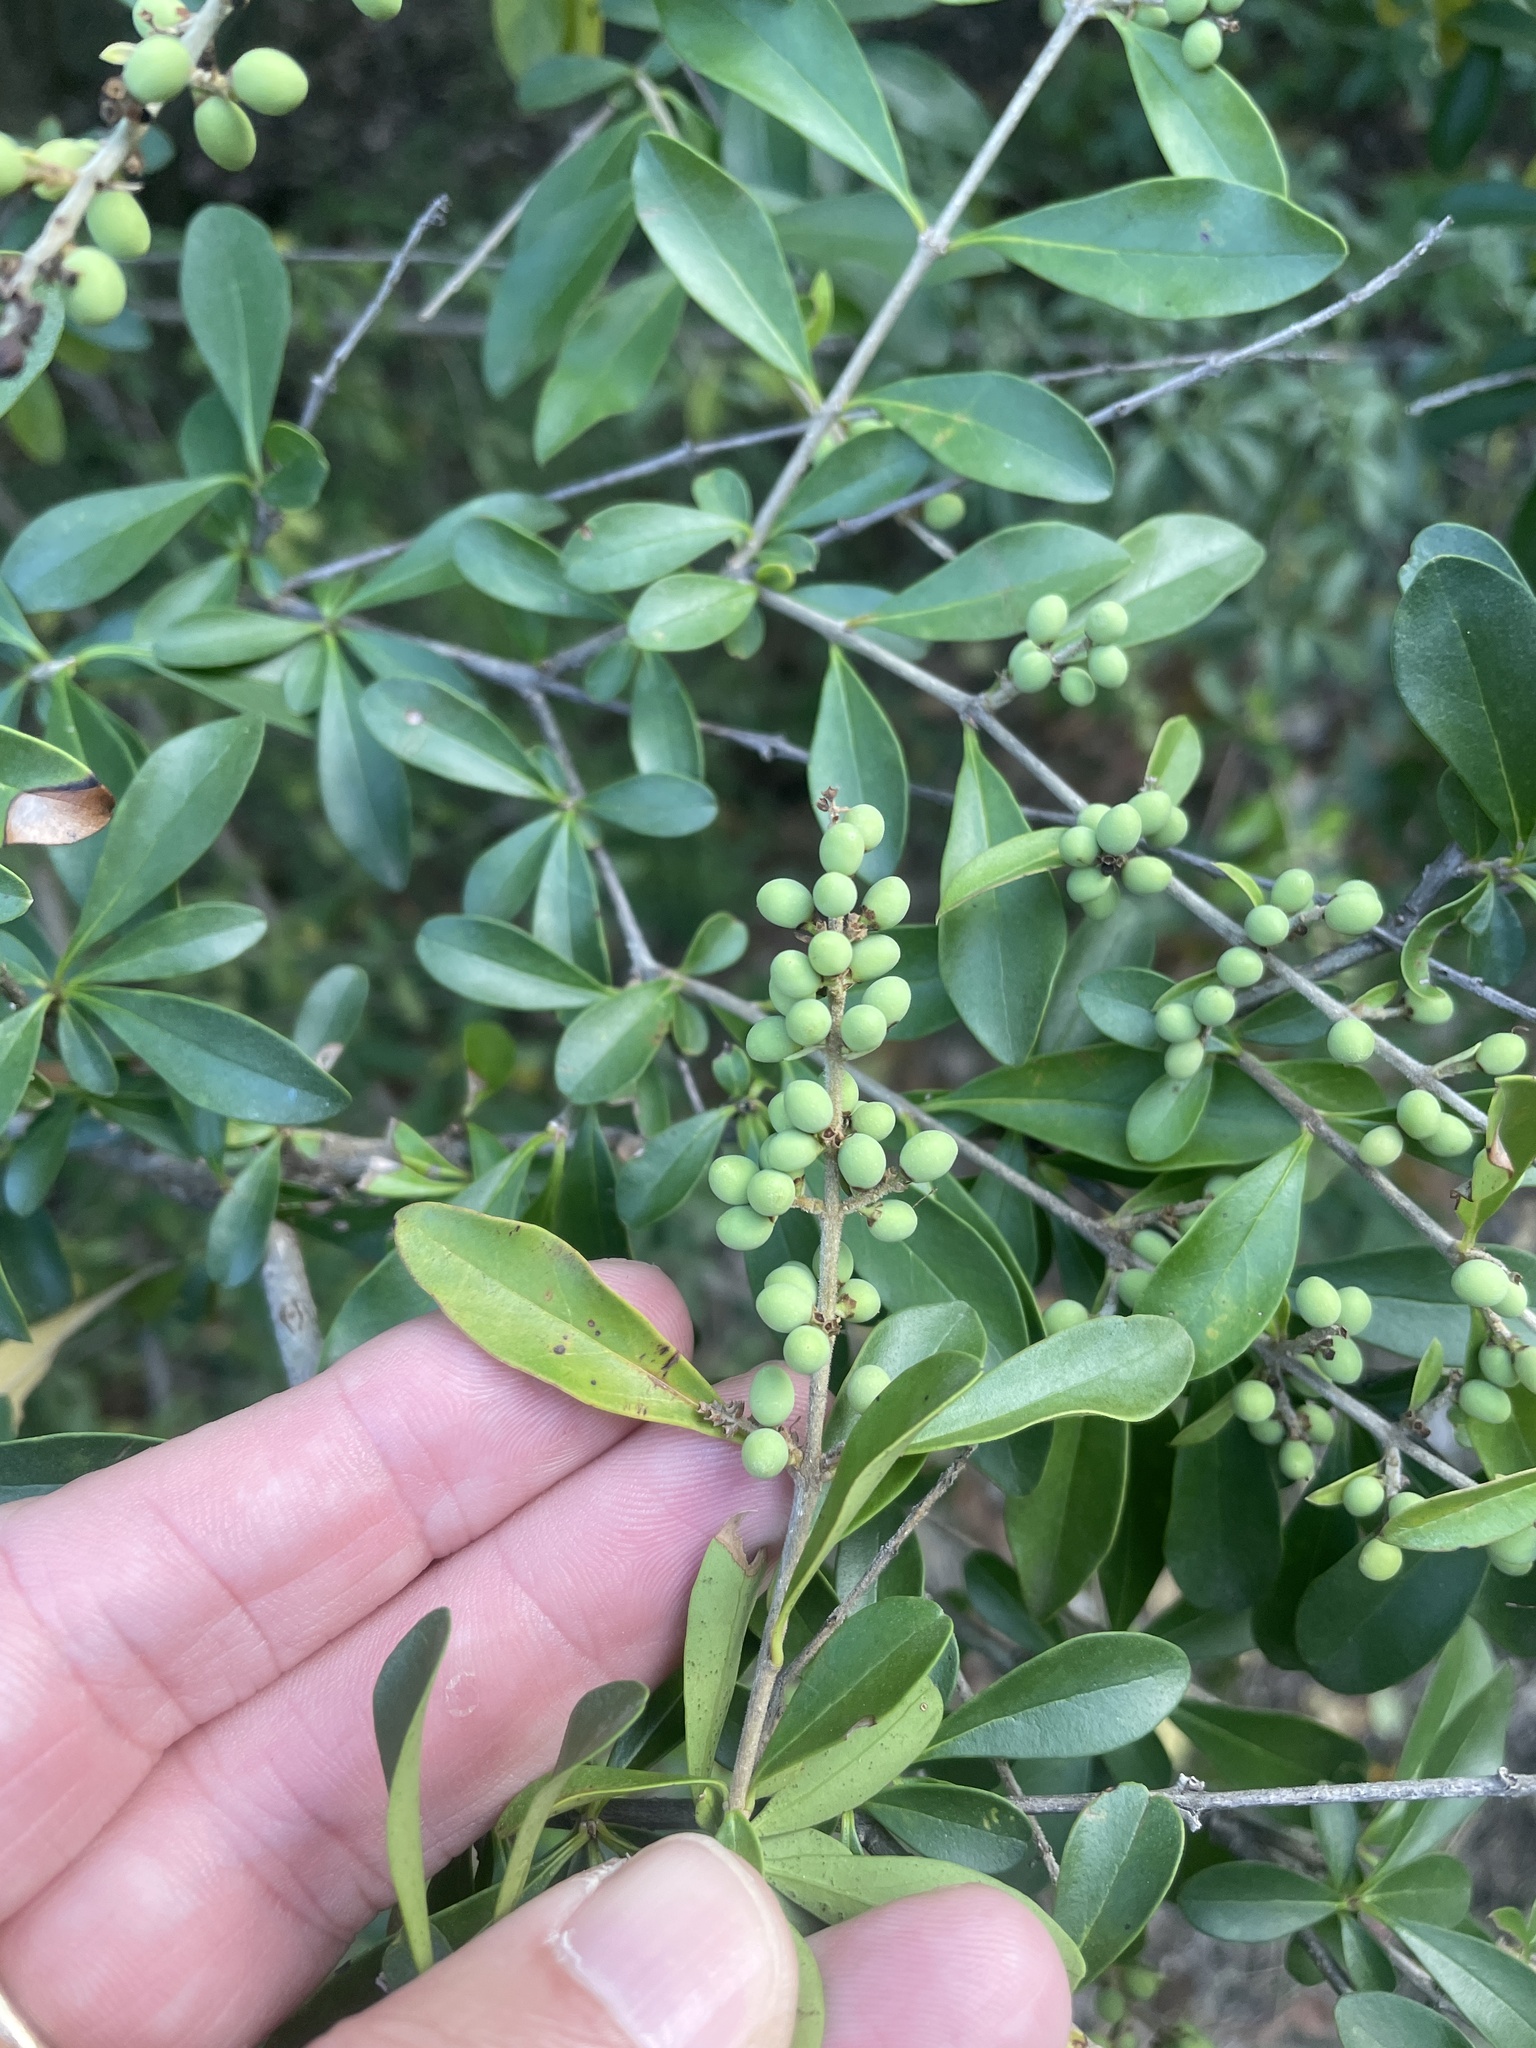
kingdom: Plantae
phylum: Tracheophyta
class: Magnoliopsida
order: Lamiales
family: Oleaceae
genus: Ligustrum
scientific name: Ligustrum quihoui
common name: Waxyleaf privet
